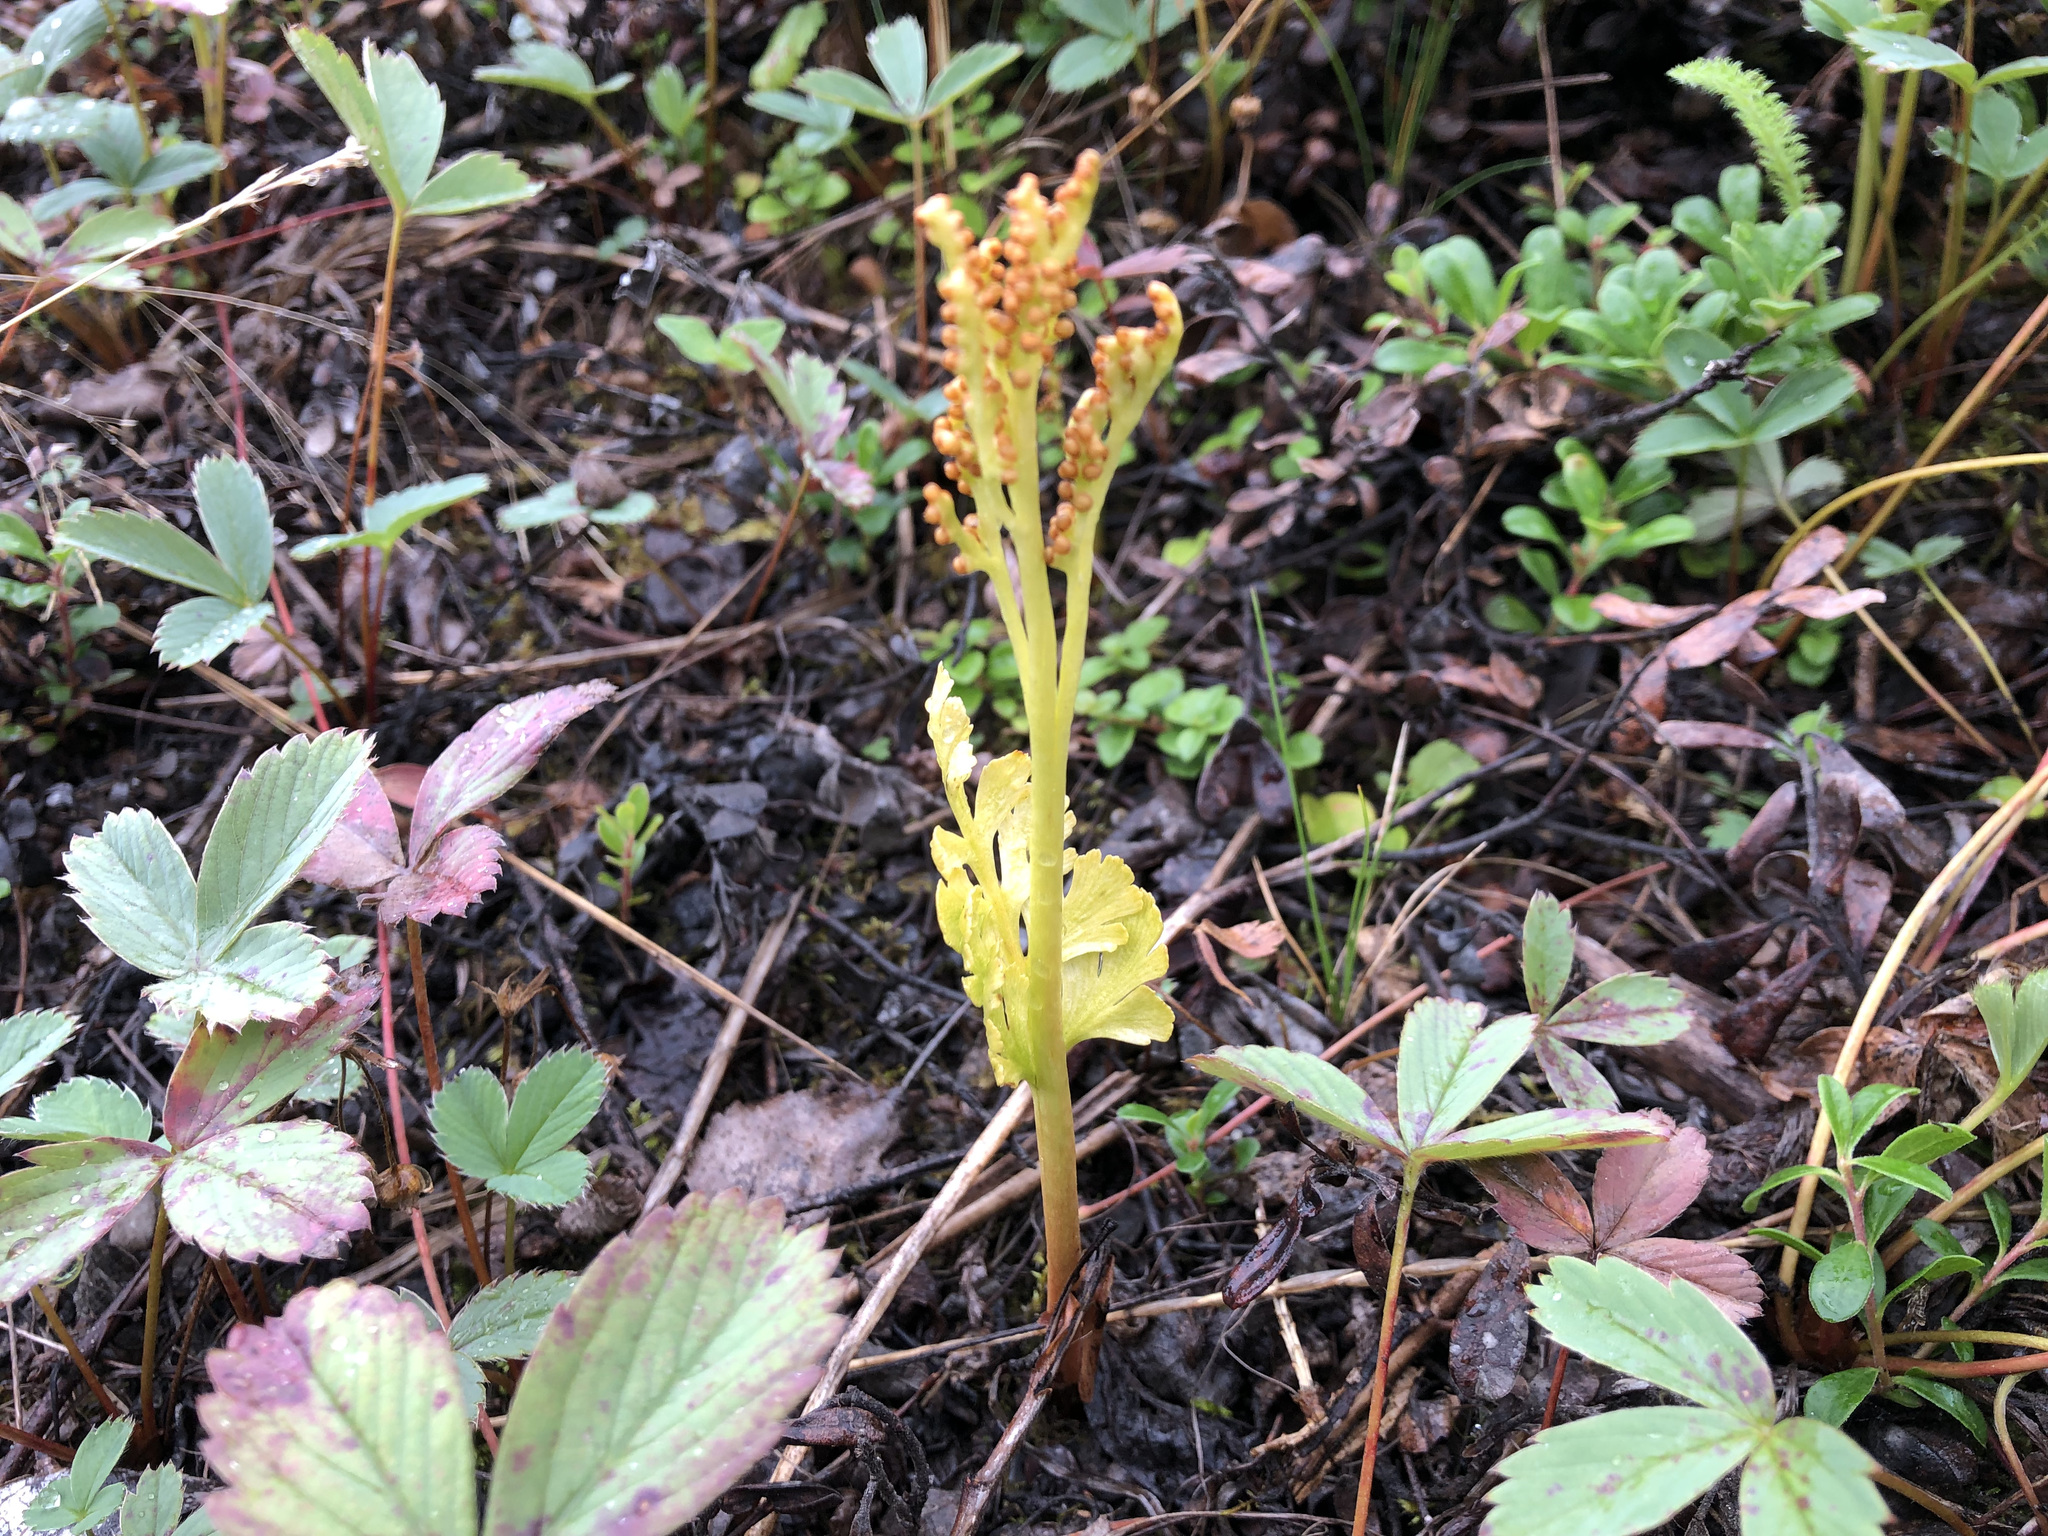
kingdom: Plantae
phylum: Tracheophyta
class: Polypodiopsida
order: Ophioglossales
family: Ophioglossaceae
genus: Botrychium
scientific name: Botrychium alaskense
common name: Alaska moonwort
